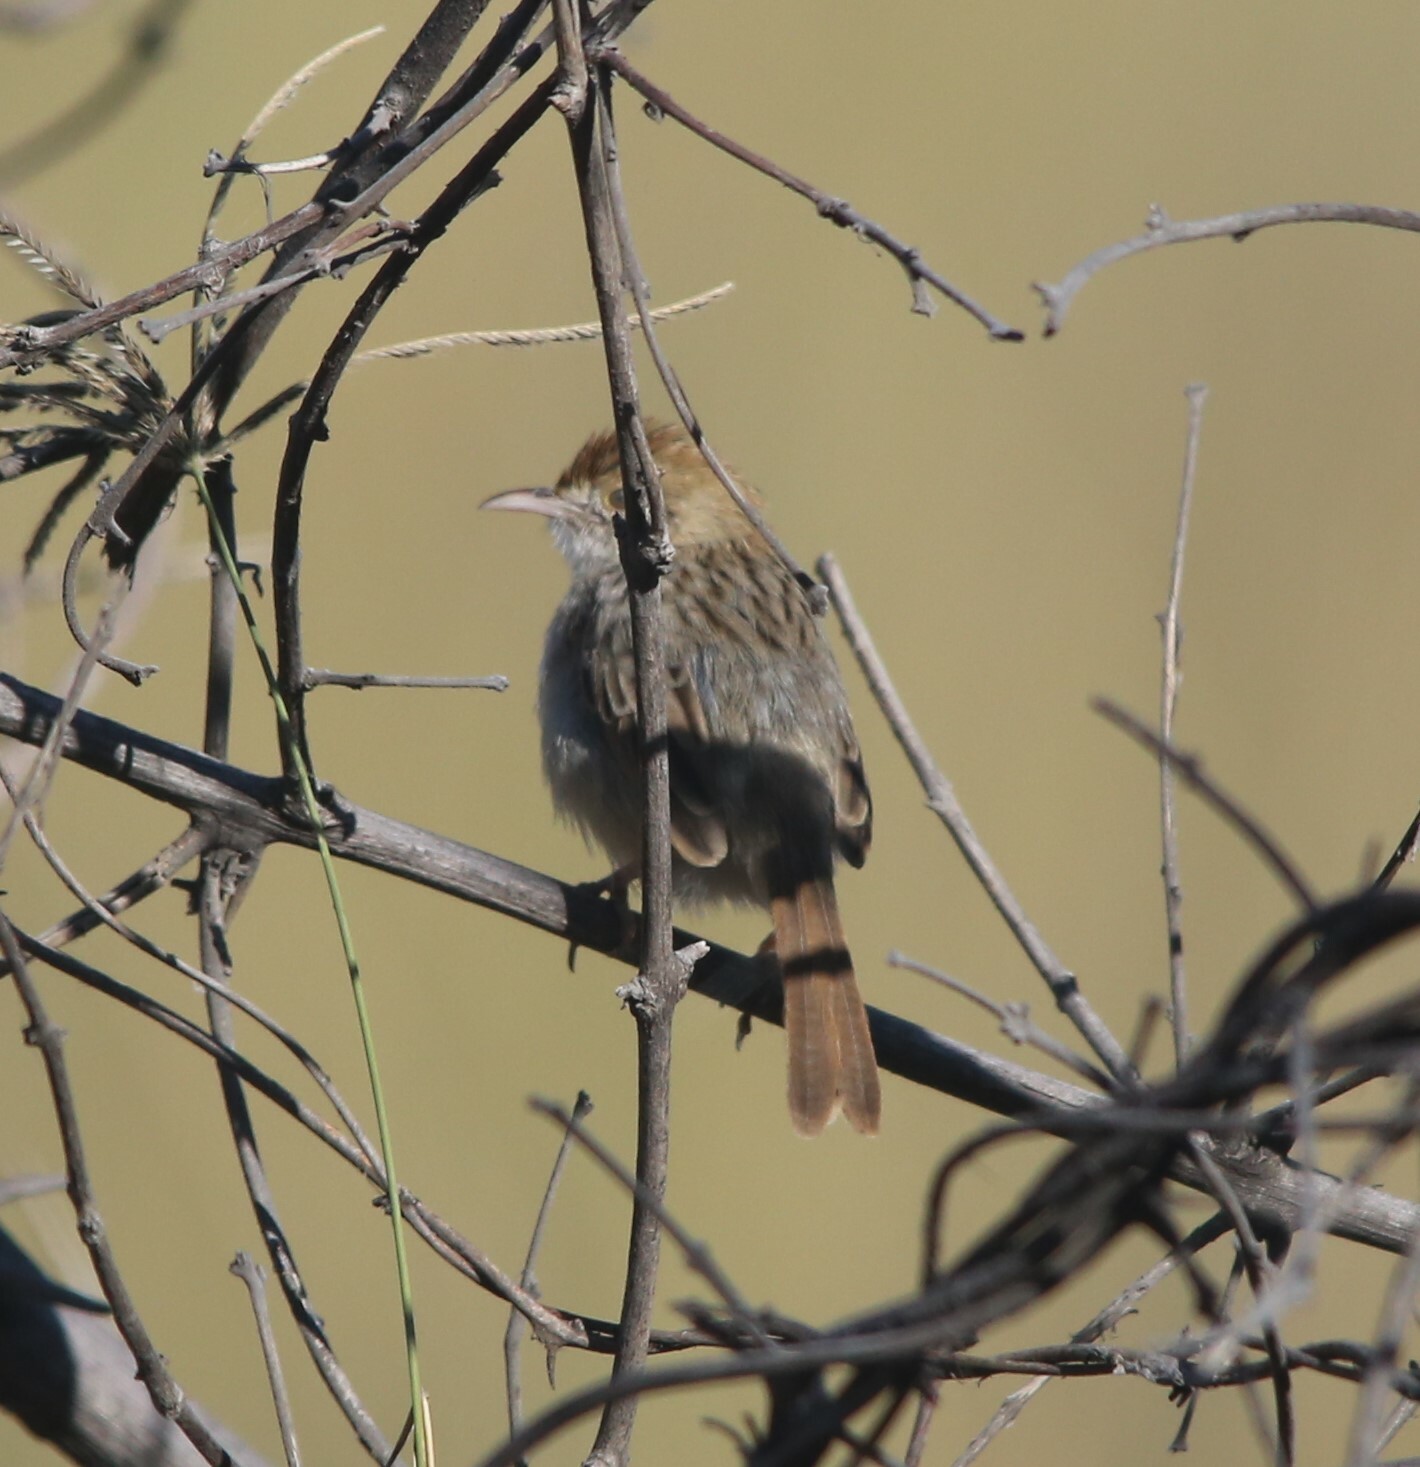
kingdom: Animalia
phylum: Chordata
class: Aves
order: Passeriformes
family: Cisticolidae
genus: Cisticola
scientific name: Cisticola chiniana
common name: Rattling cisticola
